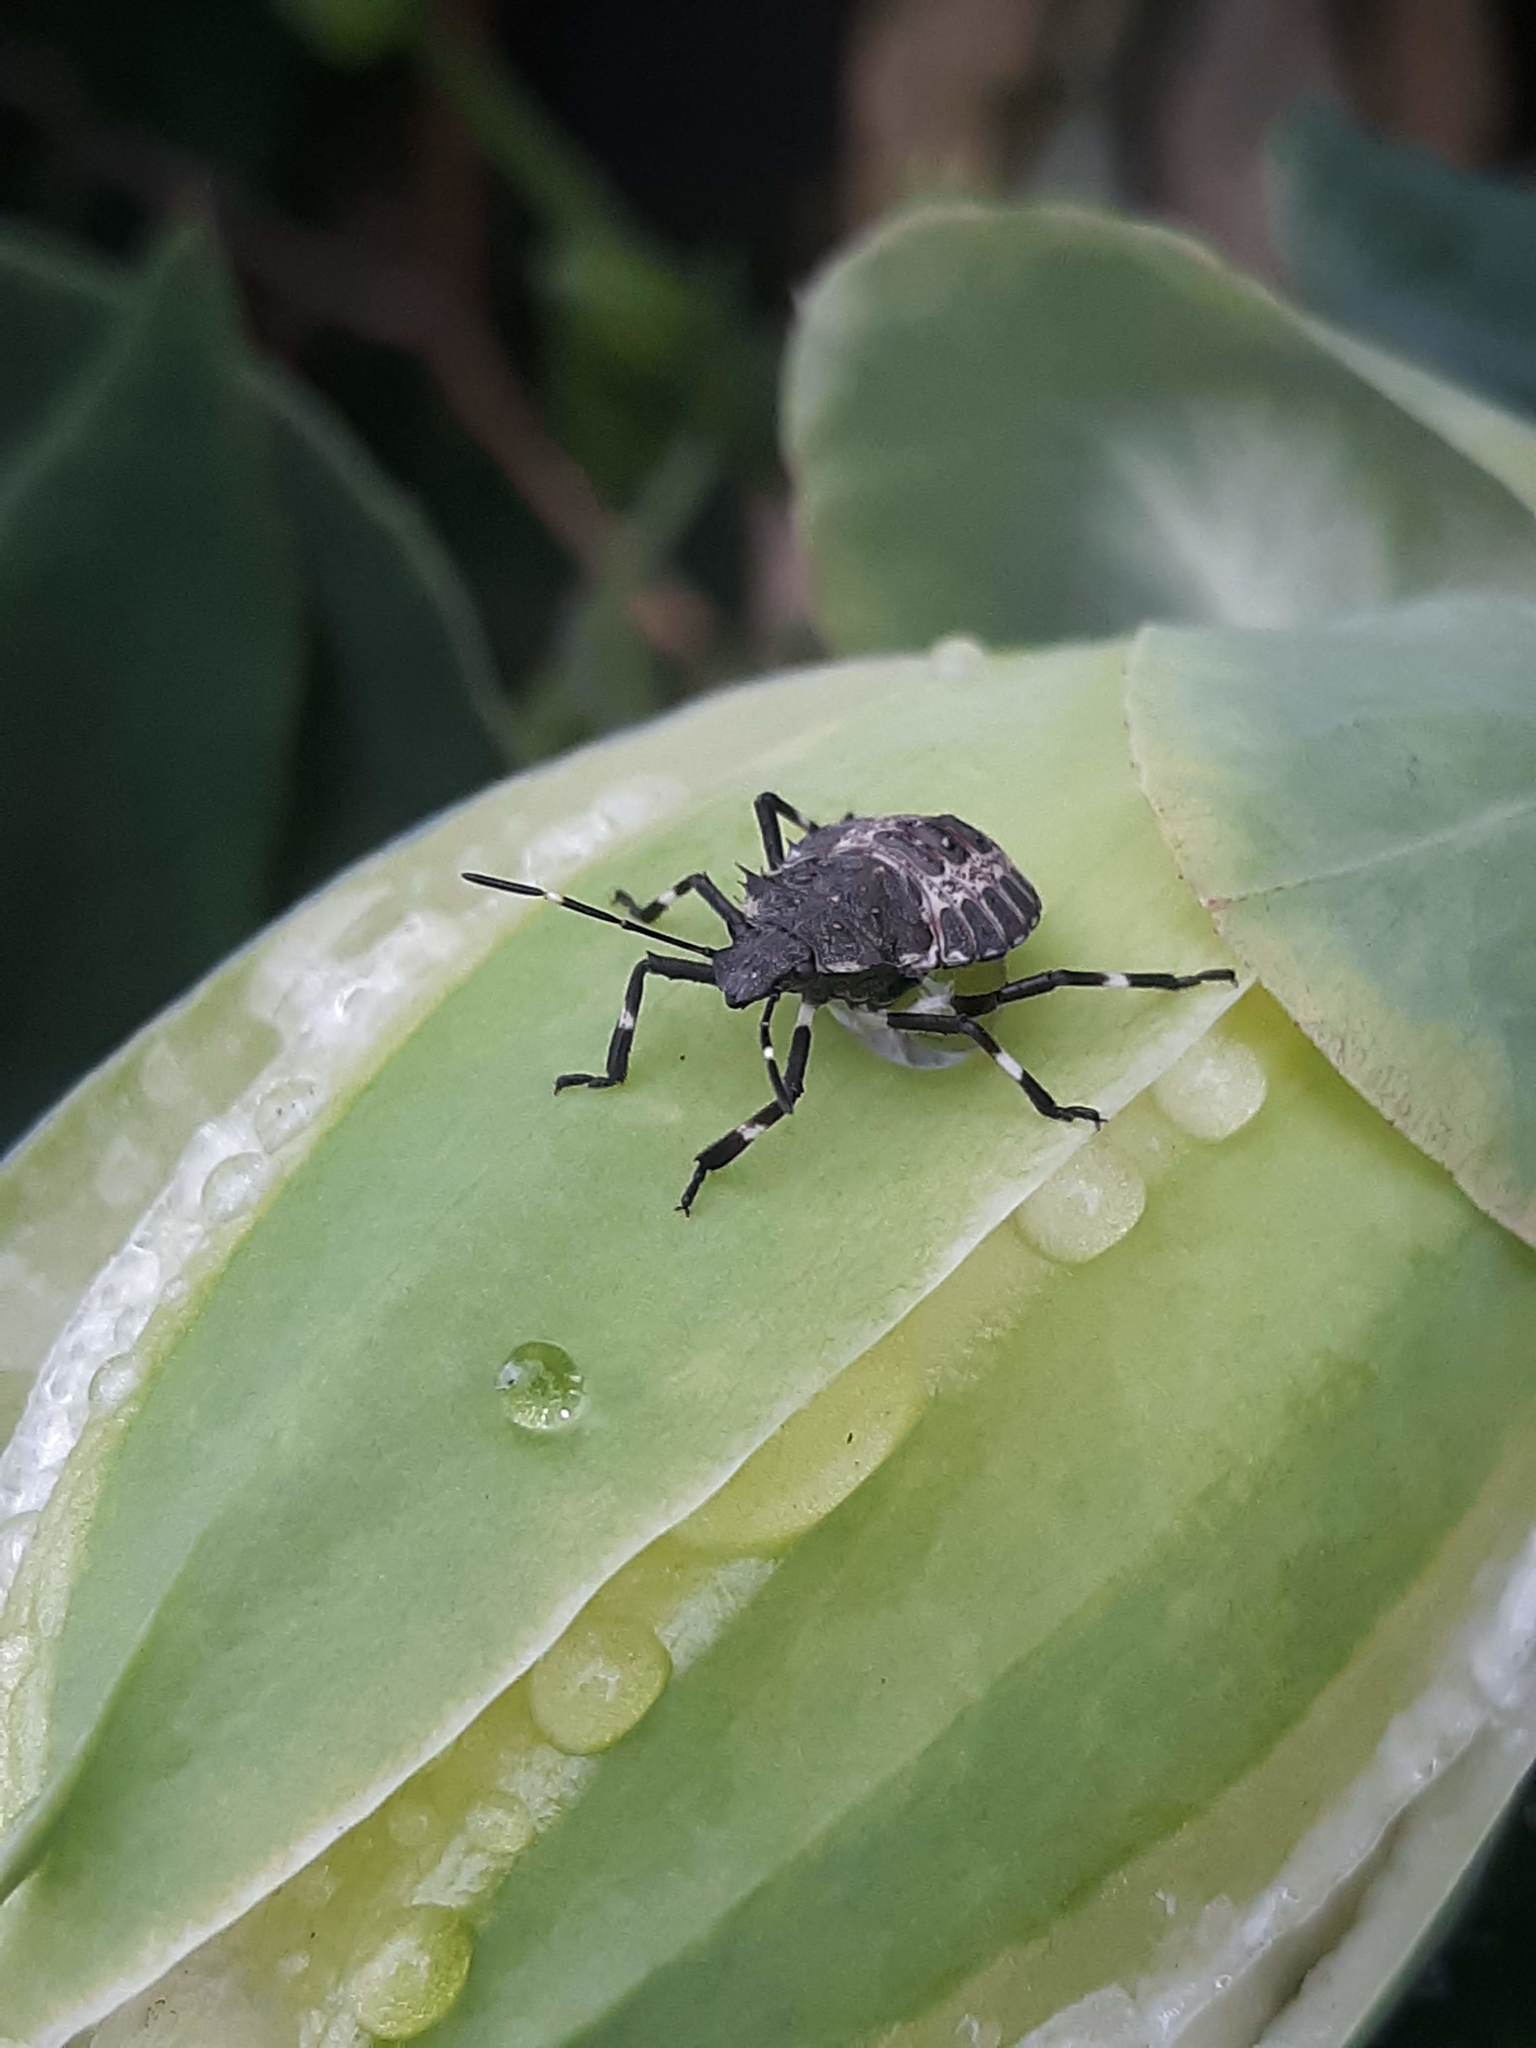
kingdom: Animalia
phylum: Arthropoda
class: Insecta
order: Hemiptera
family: Pentatomidae
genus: Halyomorpha
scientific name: Halyomorpha halys
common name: Brown marmorated stink bug
